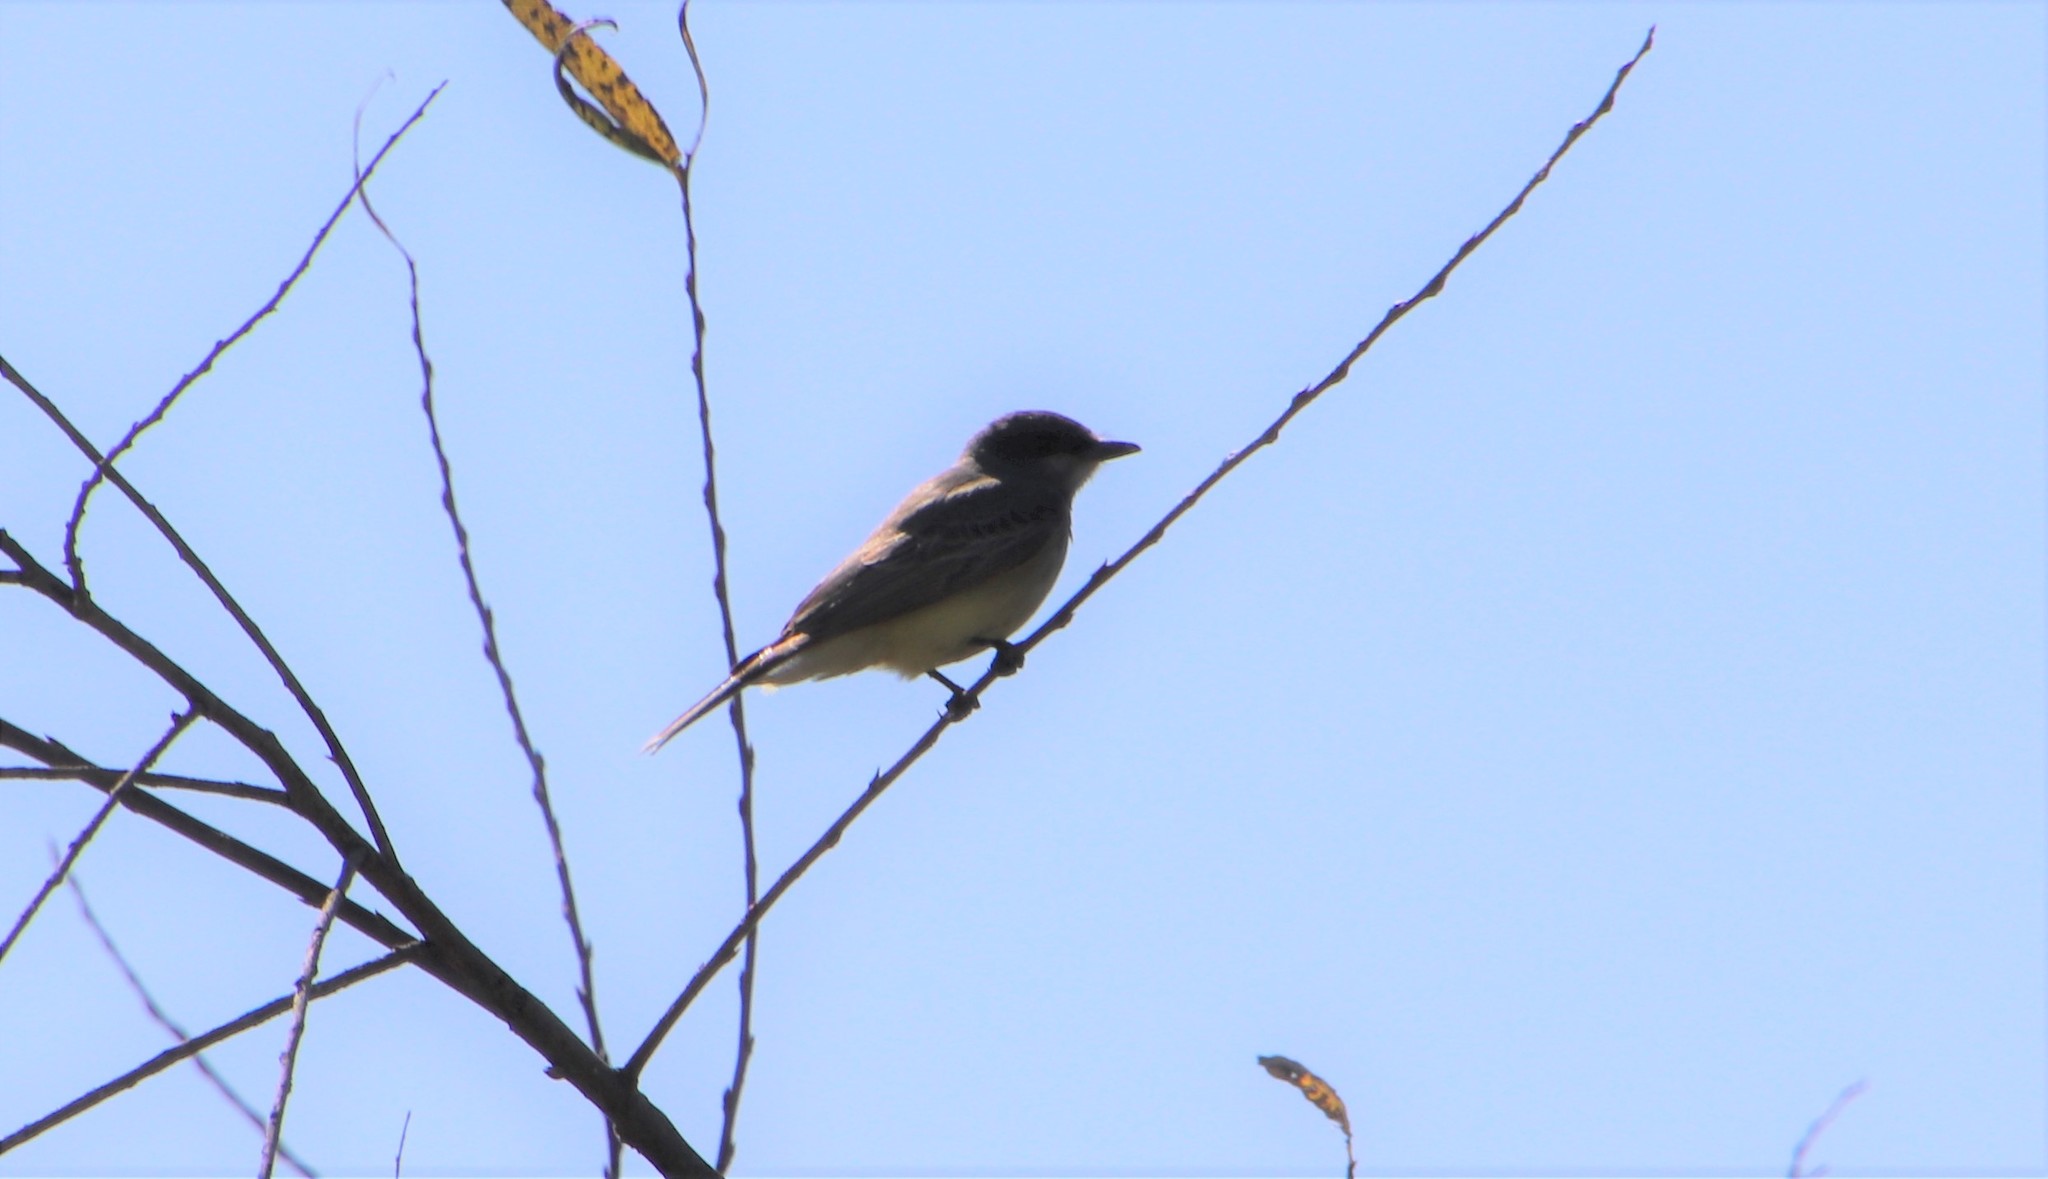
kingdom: Animalia
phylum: Chordata
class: Aves
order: Passeriformes
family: Tyrannidae
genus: Tyrannus
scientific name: Tyrannus vociferans
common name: Cassin's kingbird
